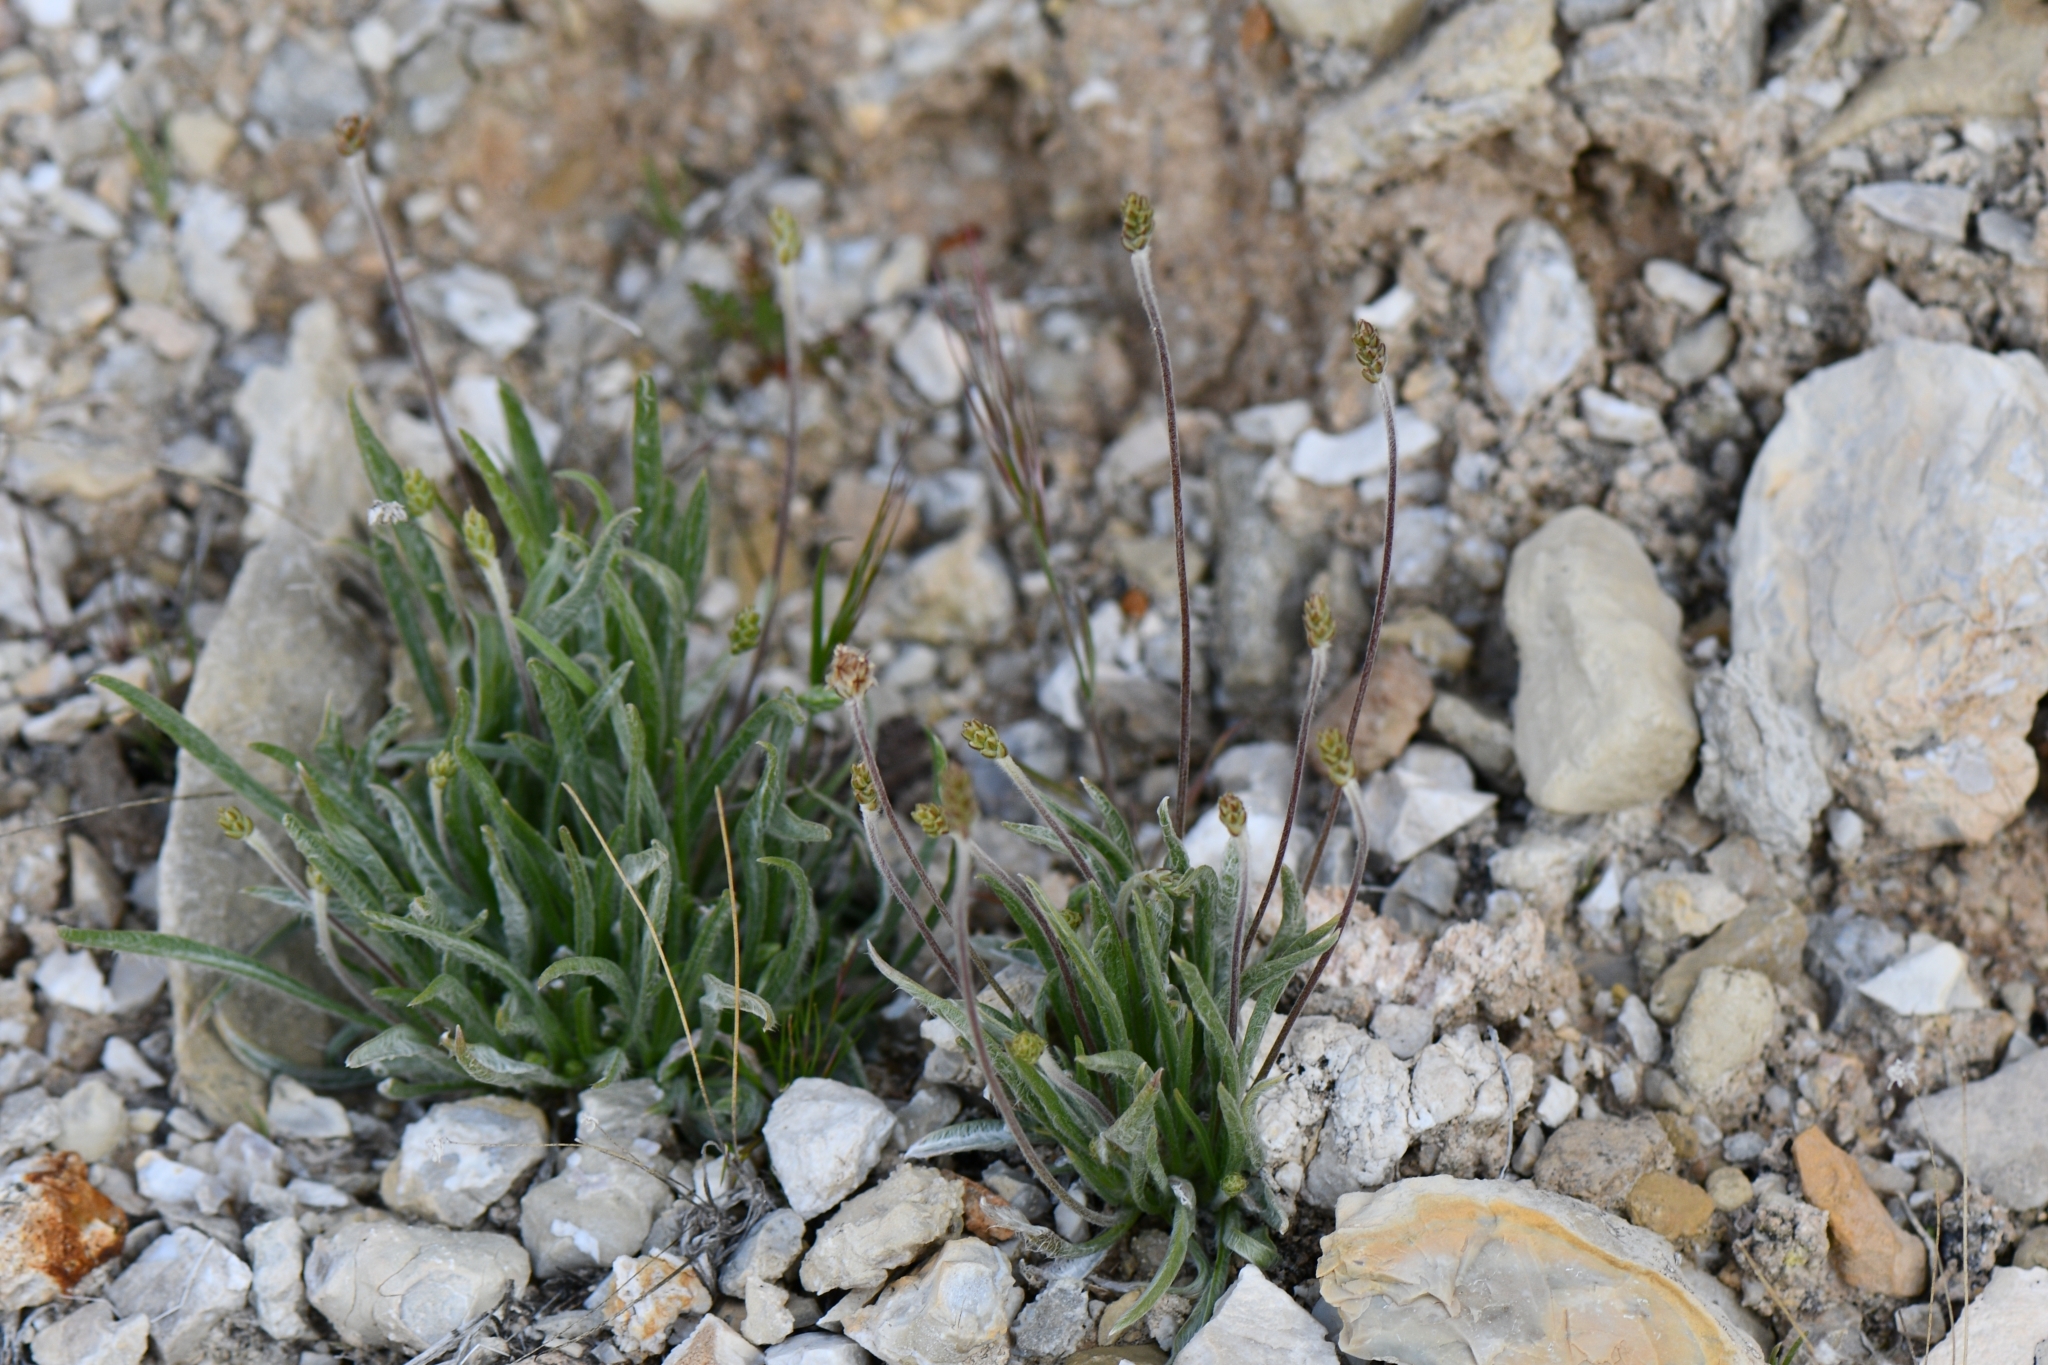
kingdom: Plantae
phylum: Tracheophyta
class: Magnoliopsida
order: Lamiales
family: Plantaginaceae
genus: Plantago
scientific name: Plantago ovata
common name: Blond plantain
